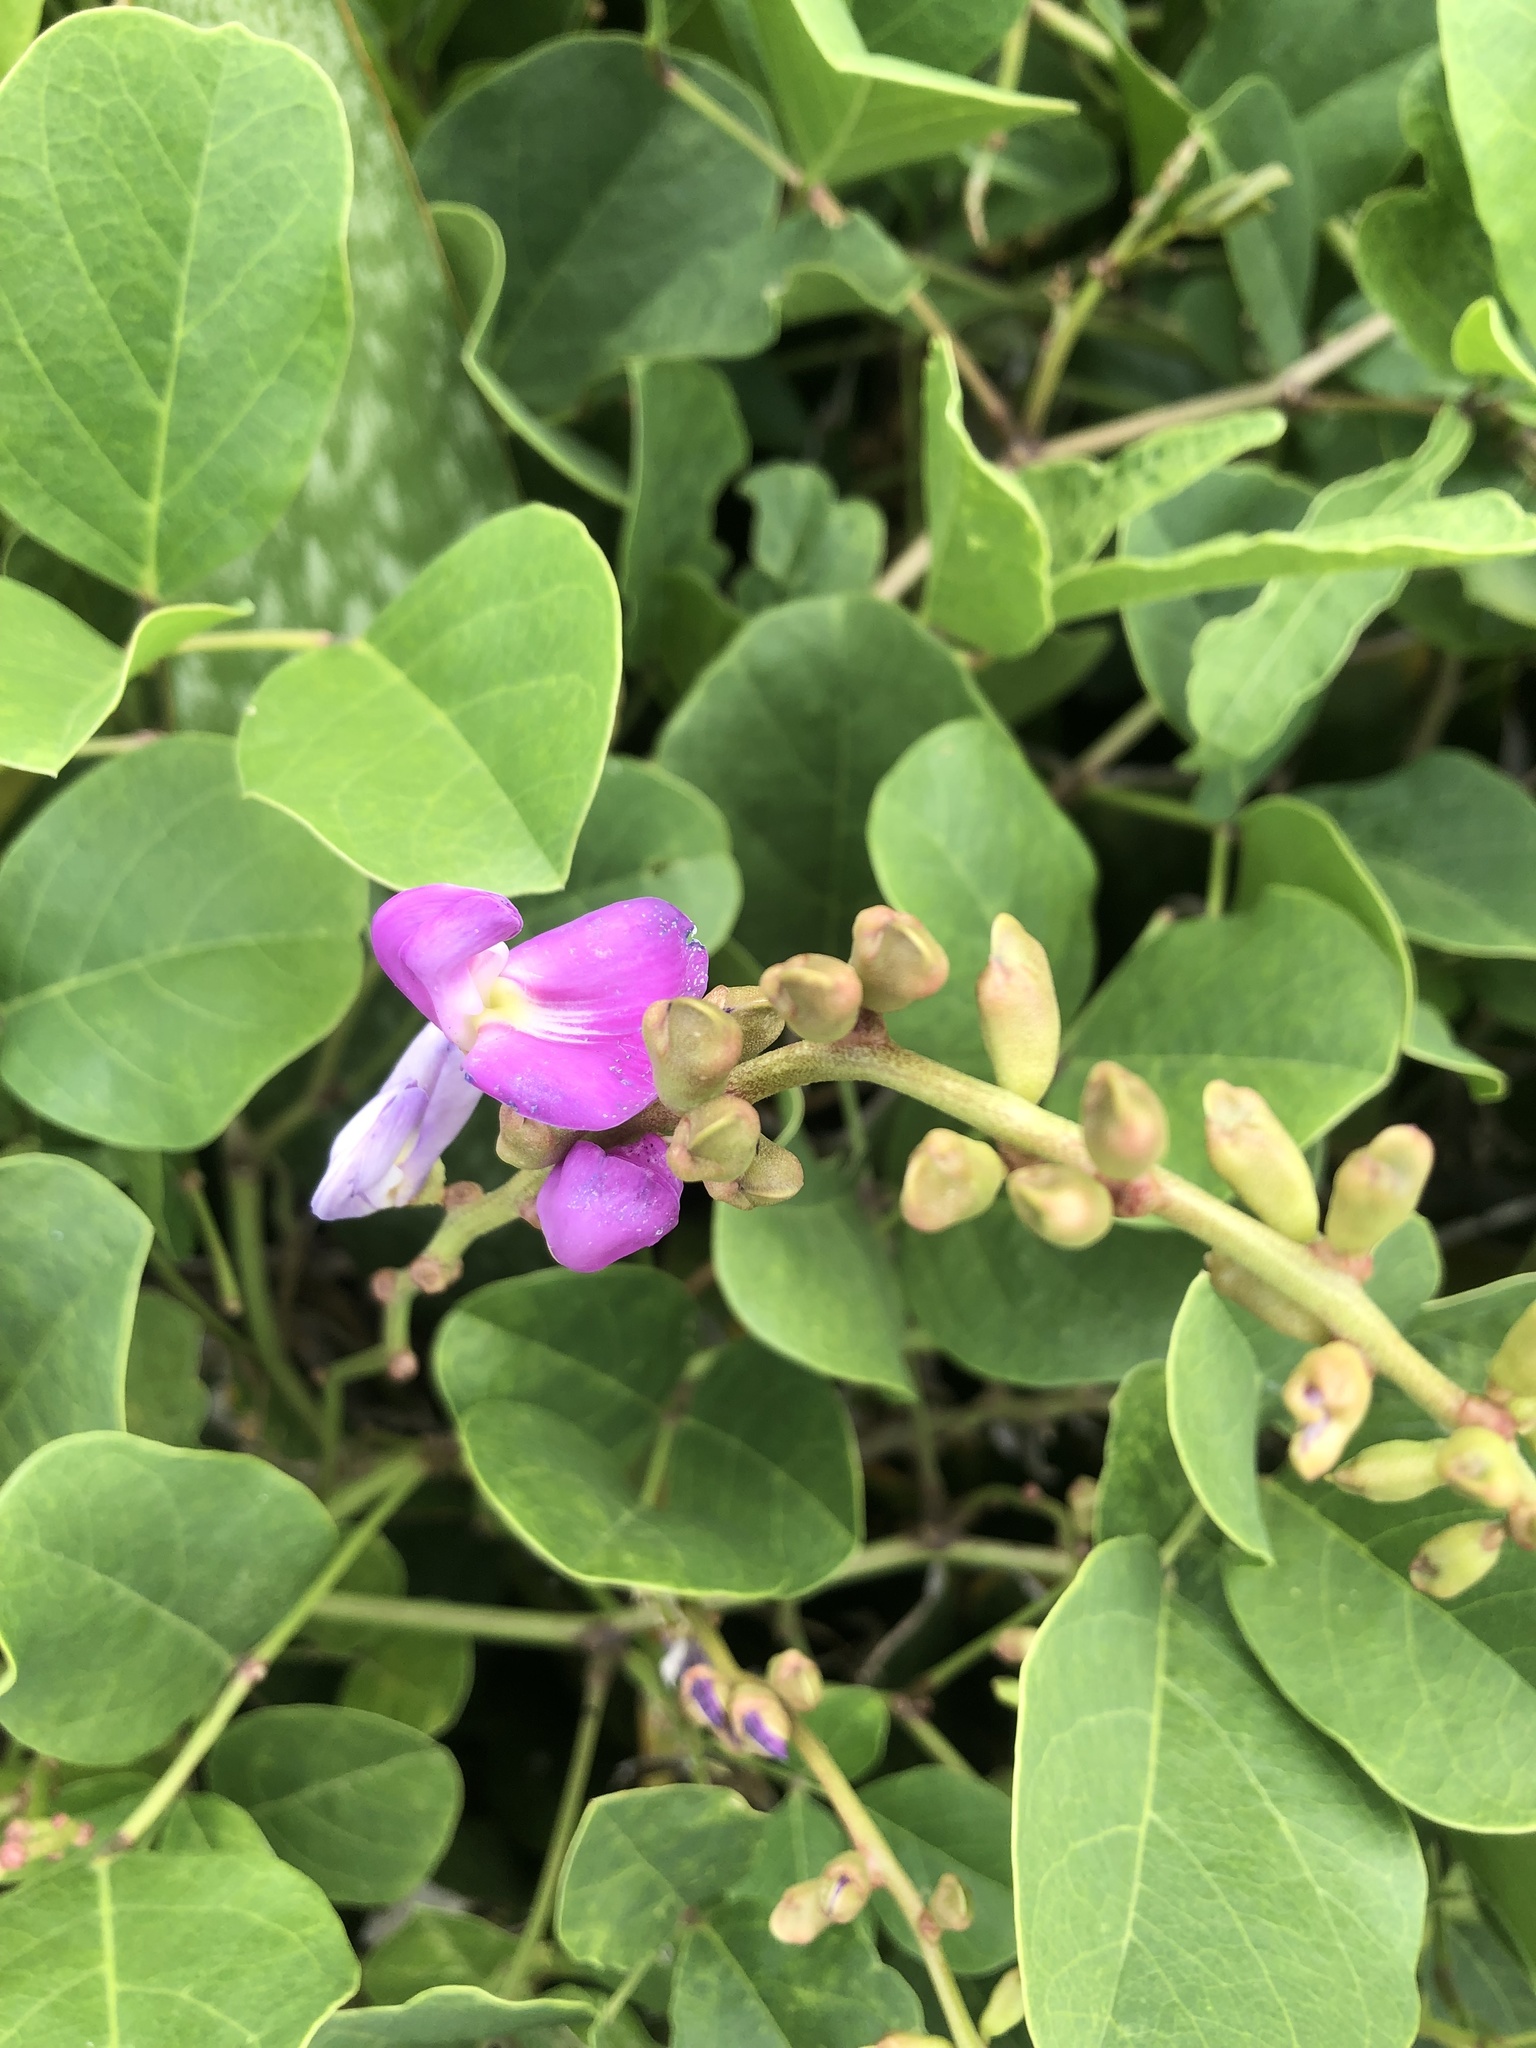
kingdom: Plantae
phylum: Tracheophyta
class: Magnoliopsida
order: Fabales
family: Fabaceae
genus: Canavalia
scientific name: Canavalia rosea
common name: Beach-bean
